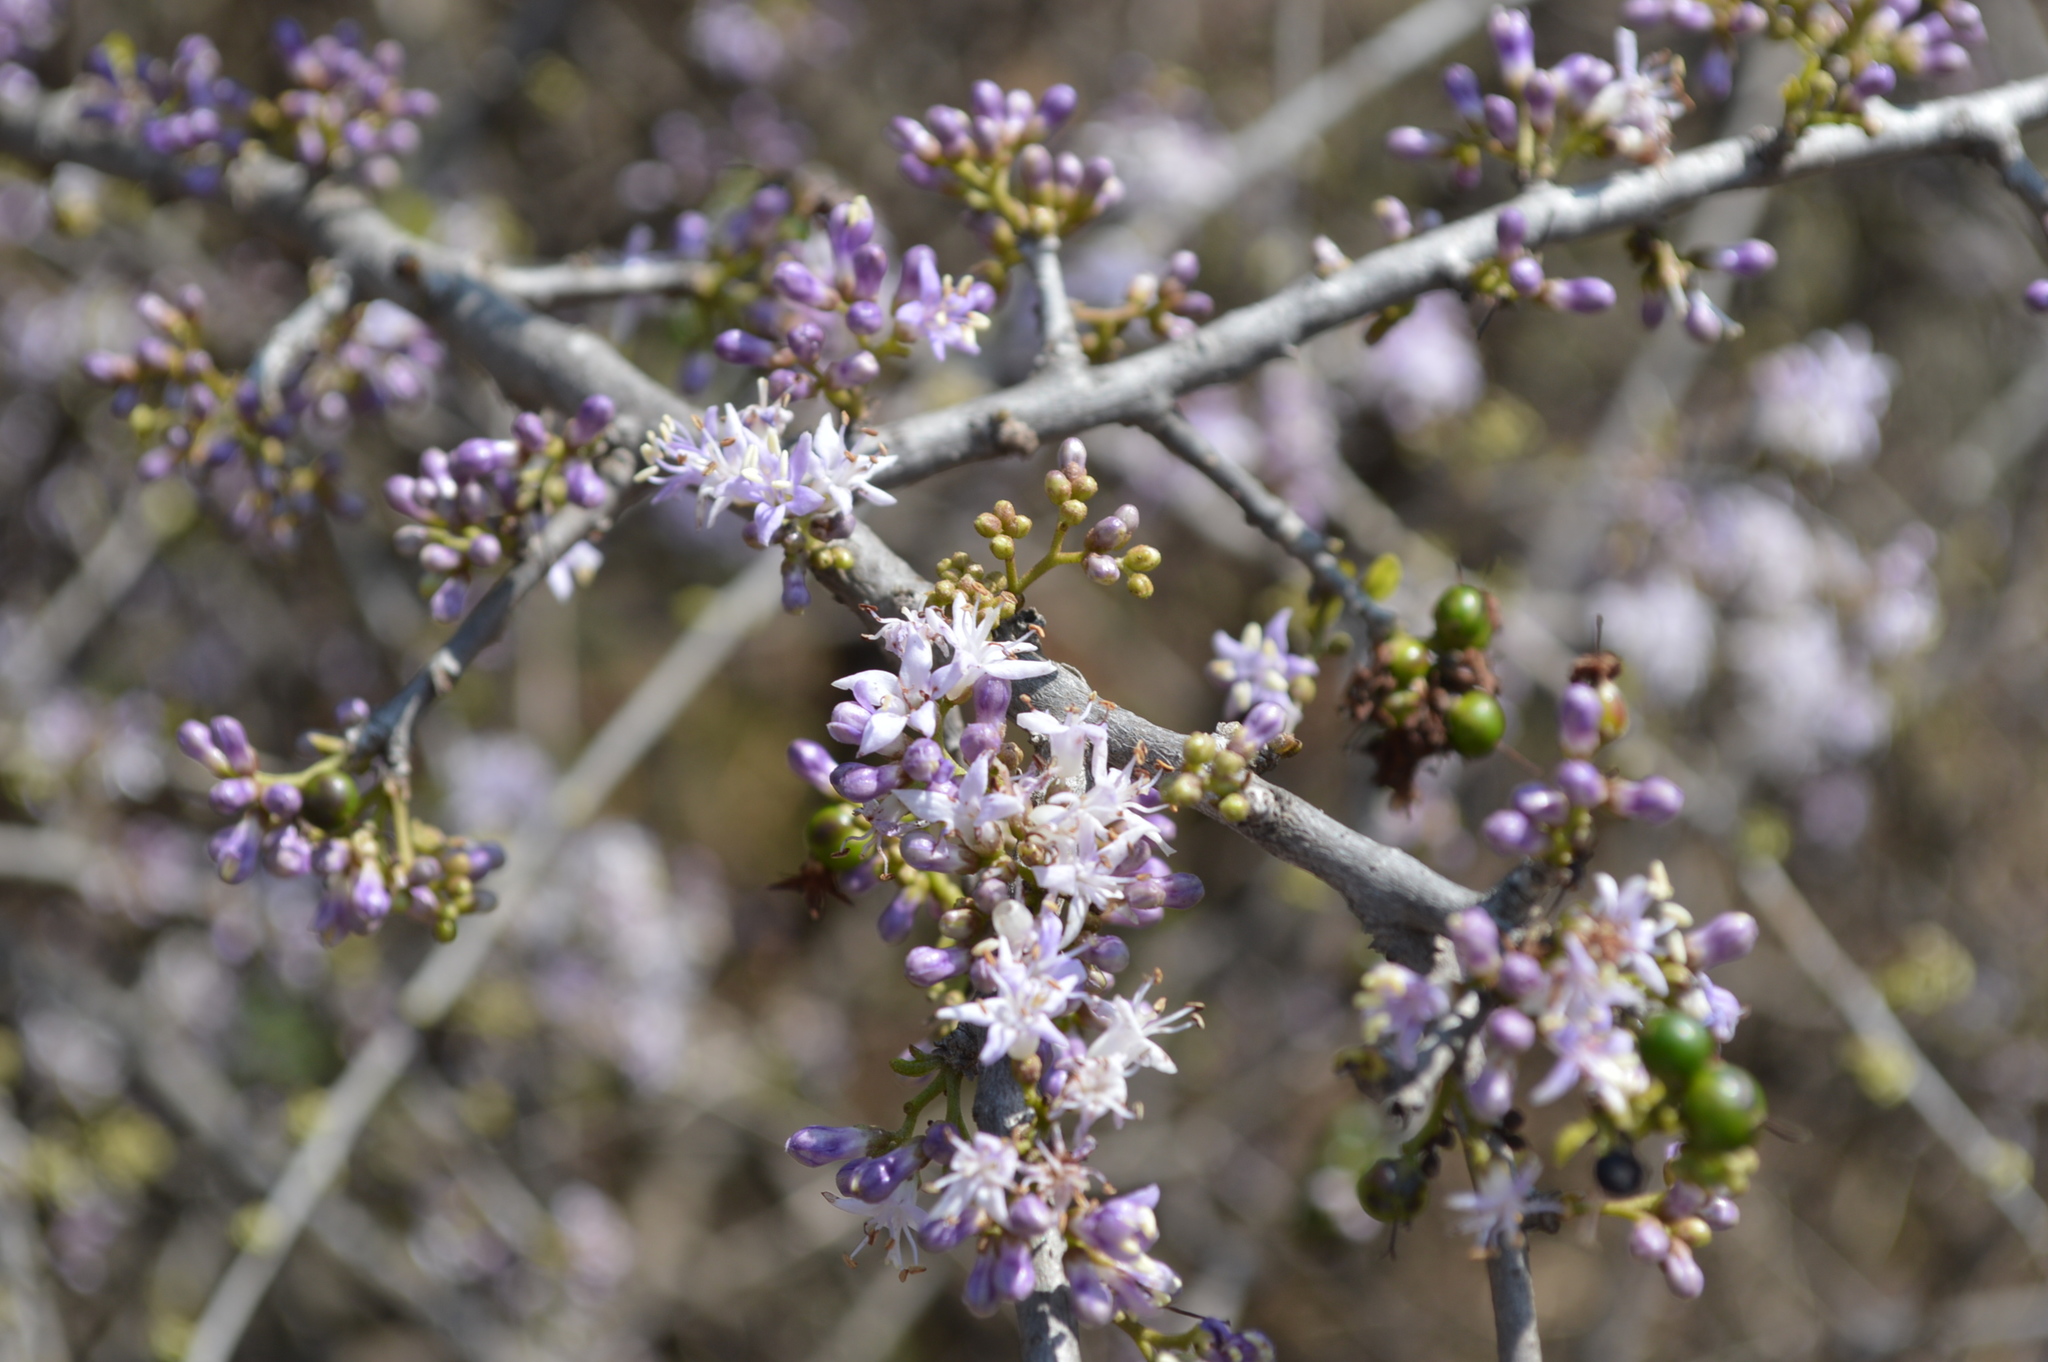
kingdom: Plantae
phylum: Tracheophyta
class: Magnoliopsida
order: Boraginales
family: Ehretiaceae
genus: Ehretia
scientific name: Ehretia rigida
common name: Cape lilac
